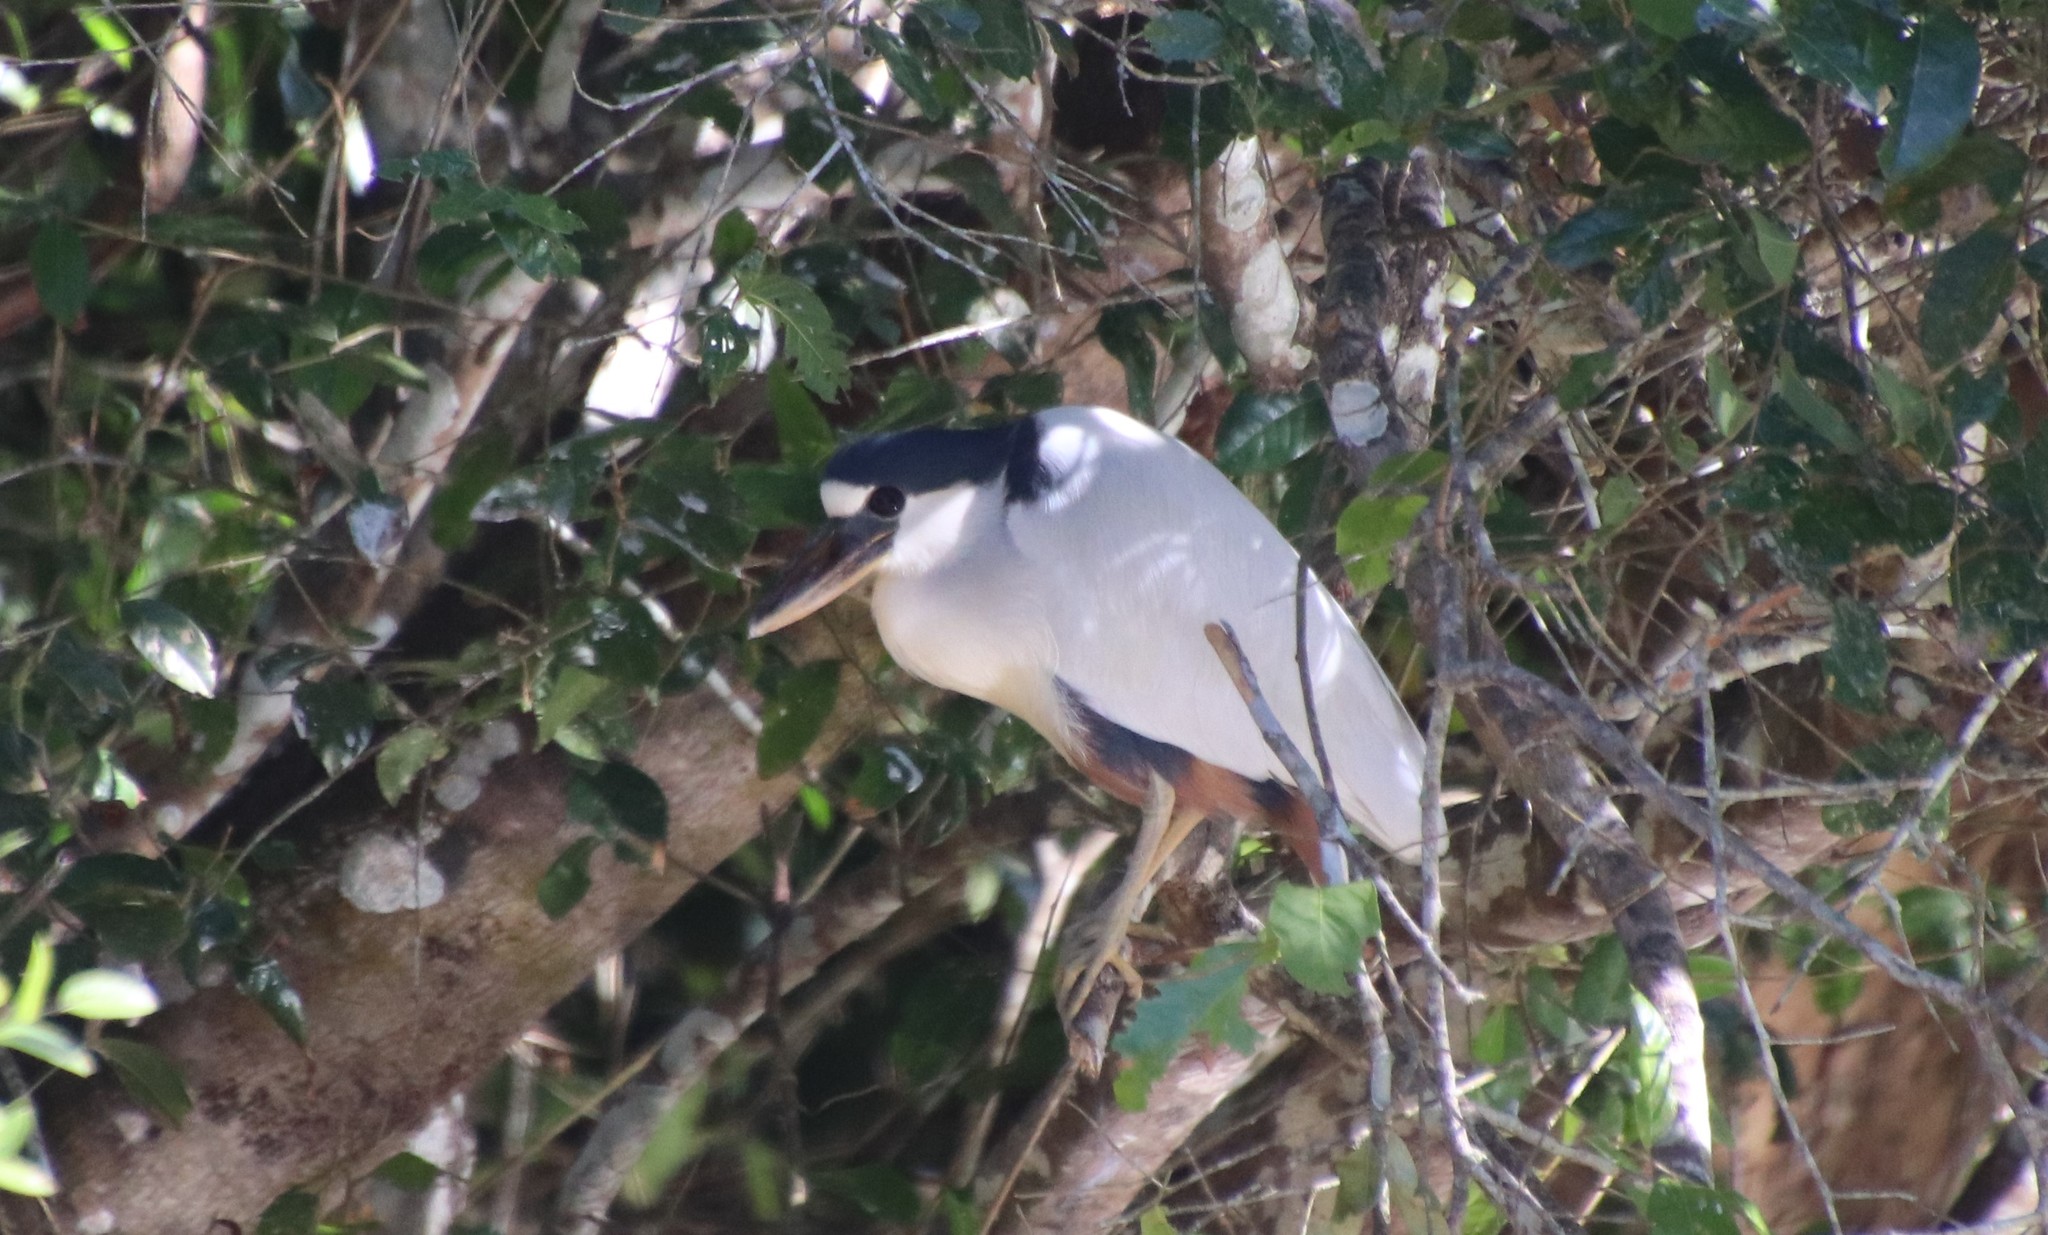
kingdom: Animalia
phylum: Chordata
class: Aves
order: Pelecaniformes
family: Ardeidae
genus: Cochlearius
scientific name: Cochlearius cochlearius
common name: Boat-billed heron
